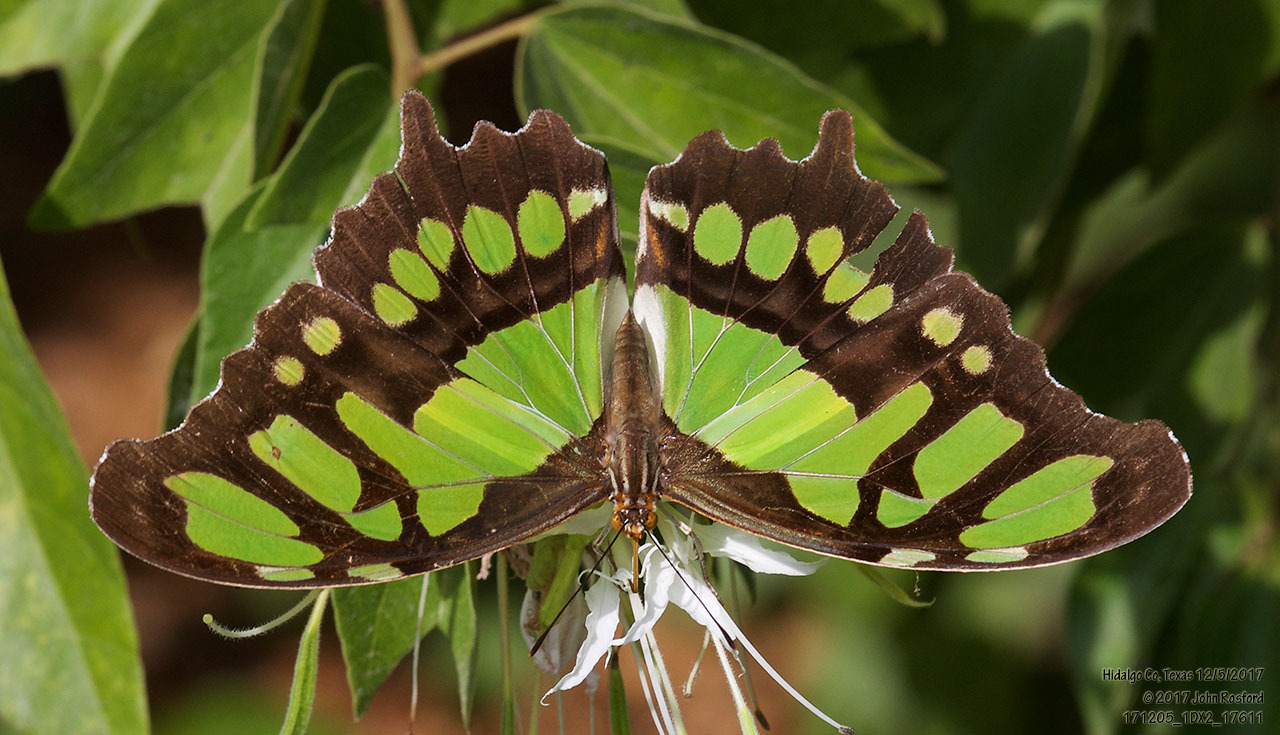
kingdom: Animalia
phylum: Arthropoda
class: Insecta
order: Lepidoptera
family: Nymphalidae
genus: Siproeta
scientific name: Siproeta stelenes
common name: Malachite
